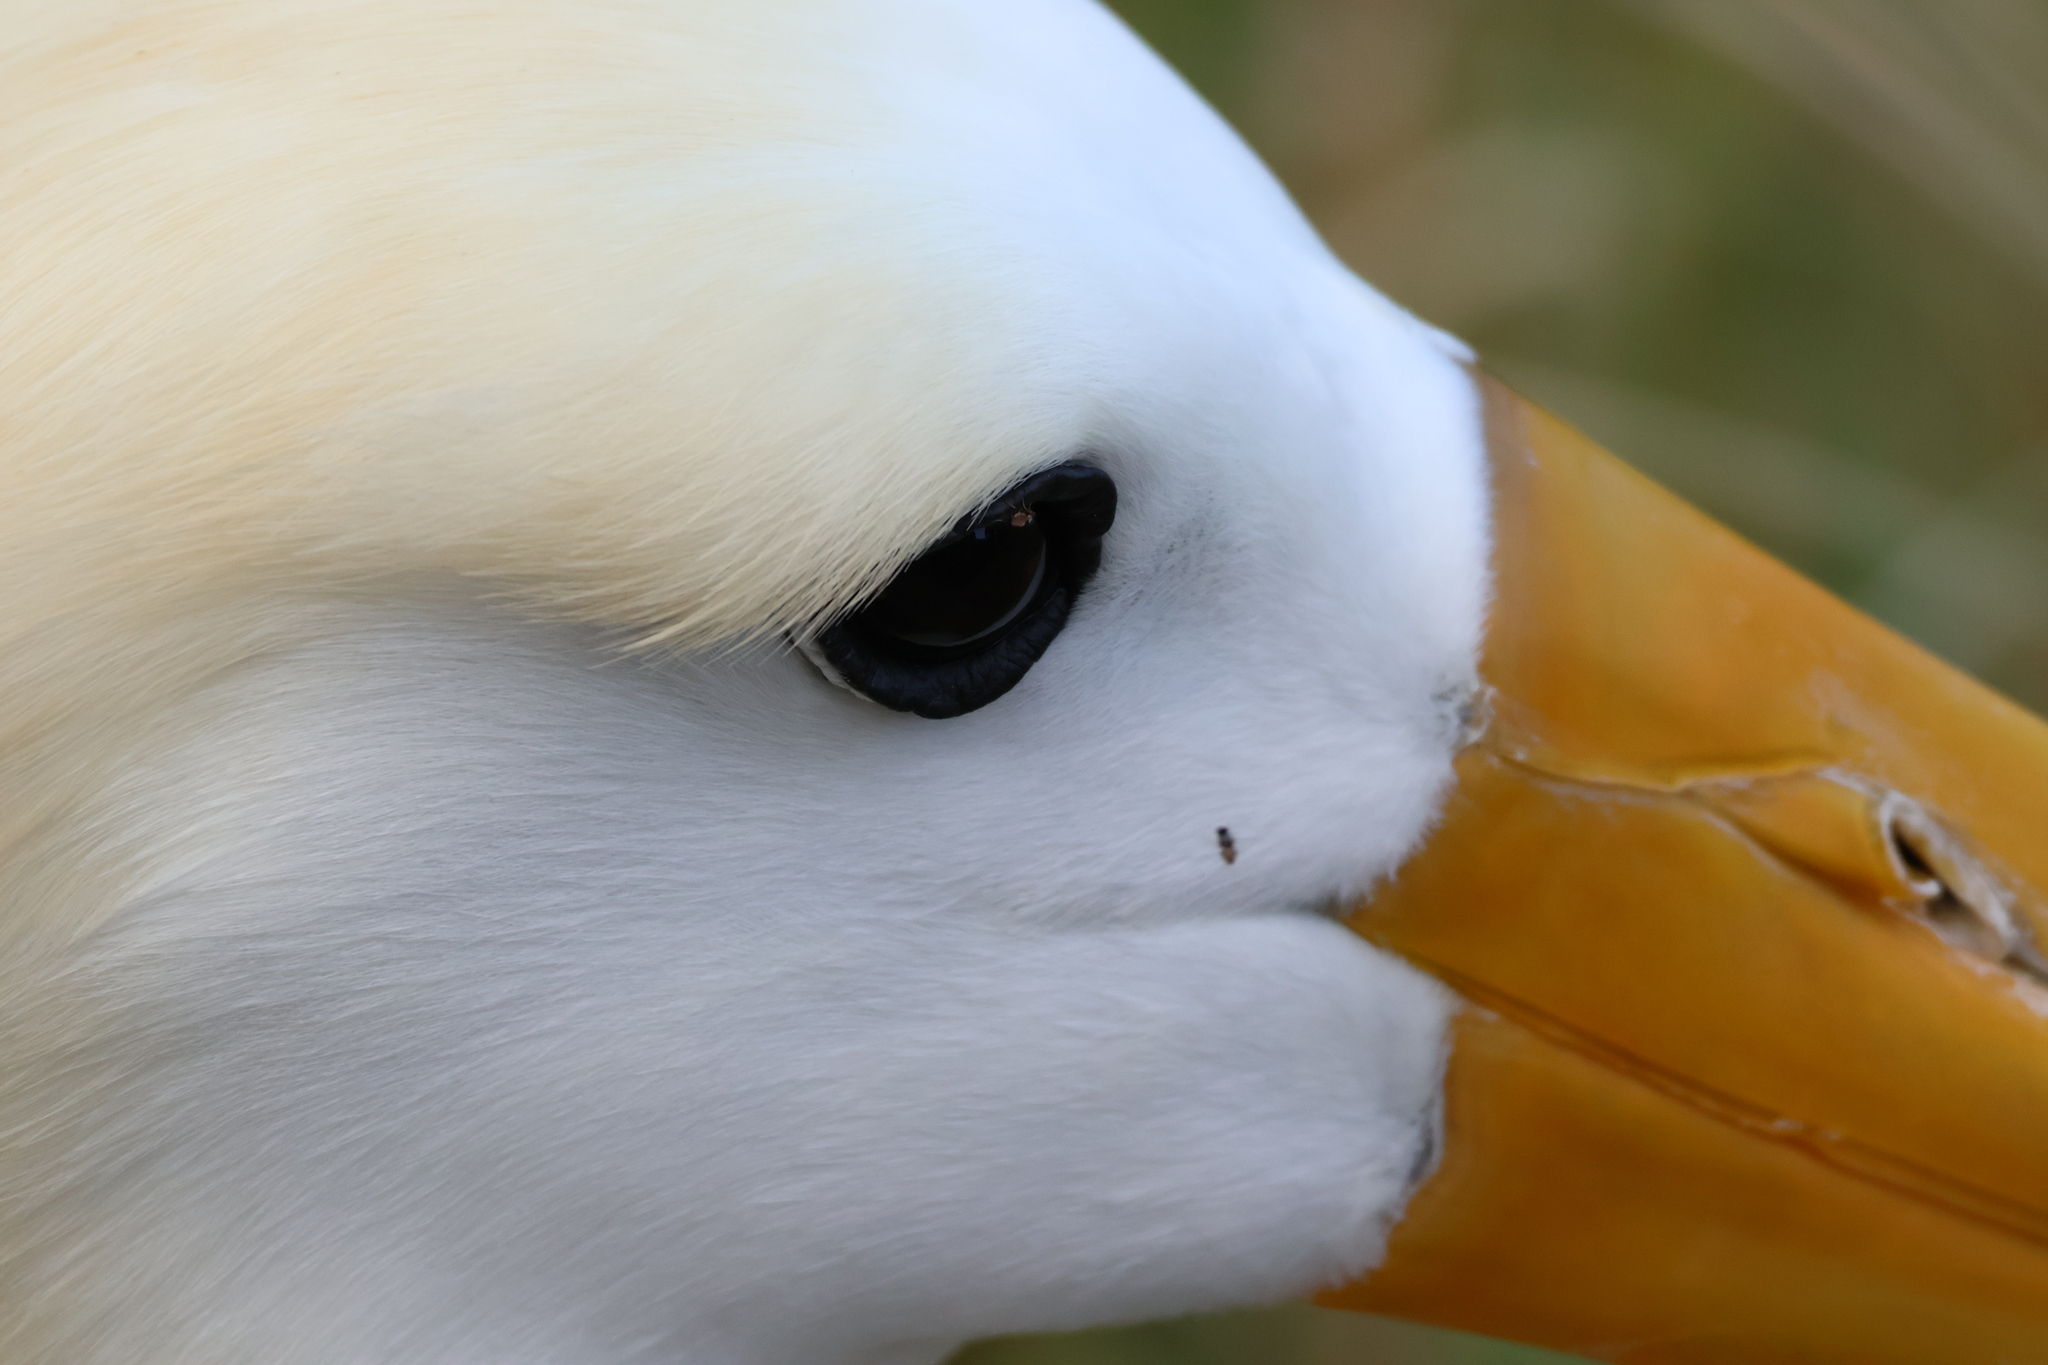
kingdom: Animalia
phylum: Chordata
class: Aves
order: Procellariiformes
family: Diomedeidae
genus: Phoebastria
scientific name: Phoebastria irrorata
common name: Waved albatross
